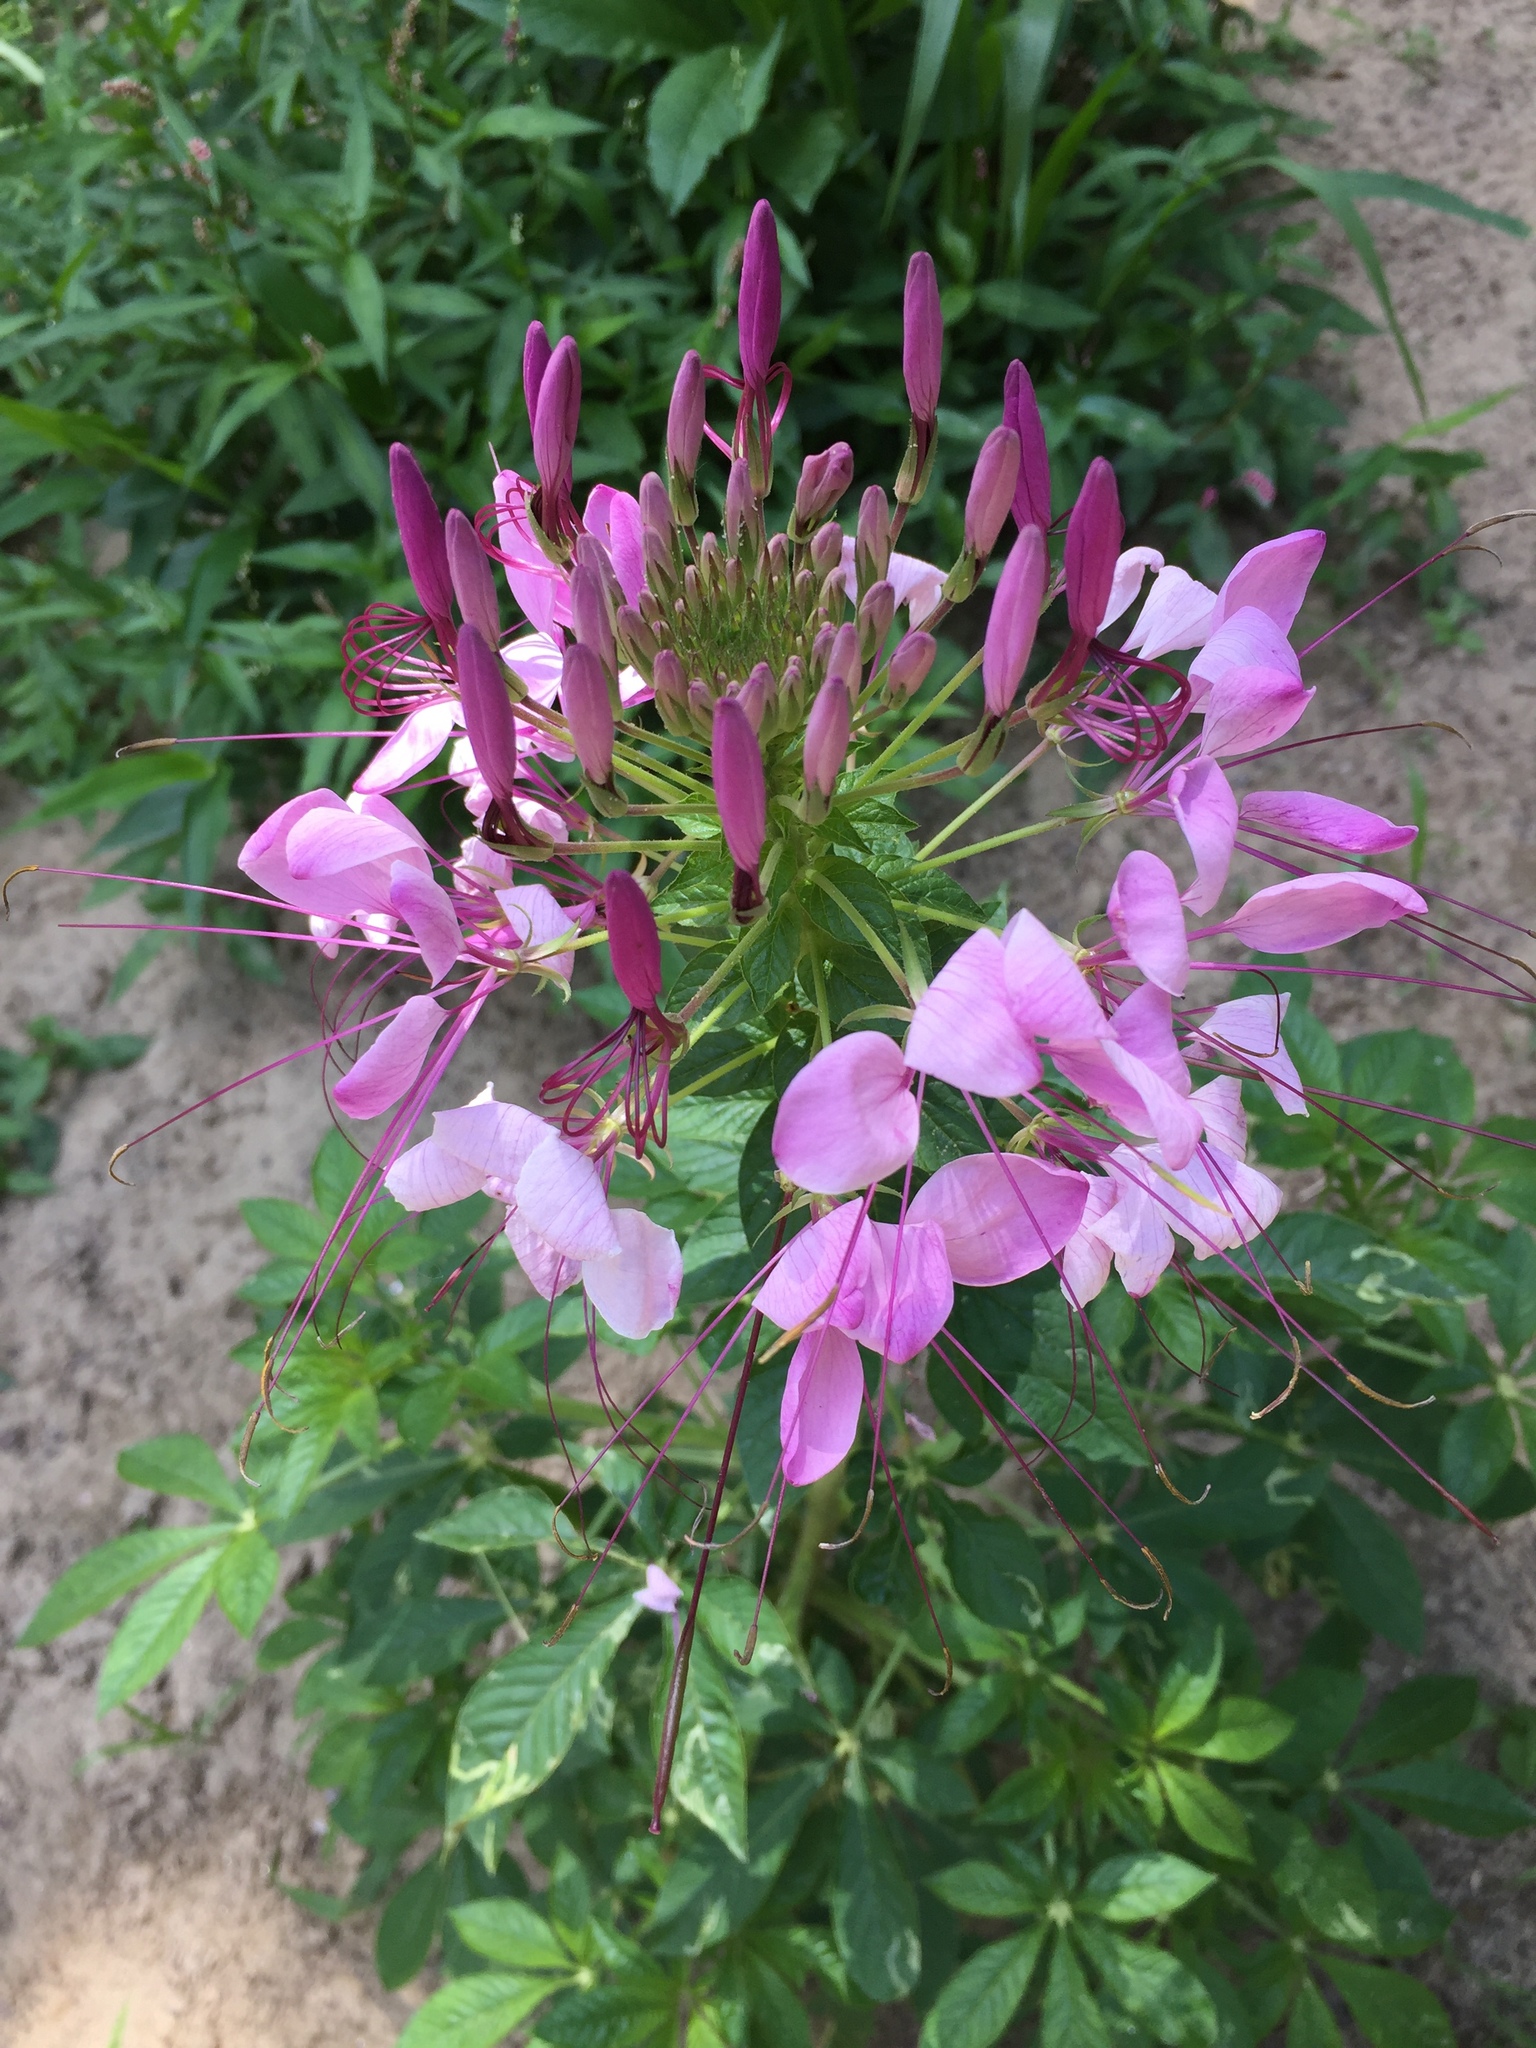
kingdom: Plantae
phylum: Tracheophyta
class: Magnoliopsida
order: Brassicales
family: Cleomaceae
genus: Tarenaya
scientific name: Tarenaya houtteana
